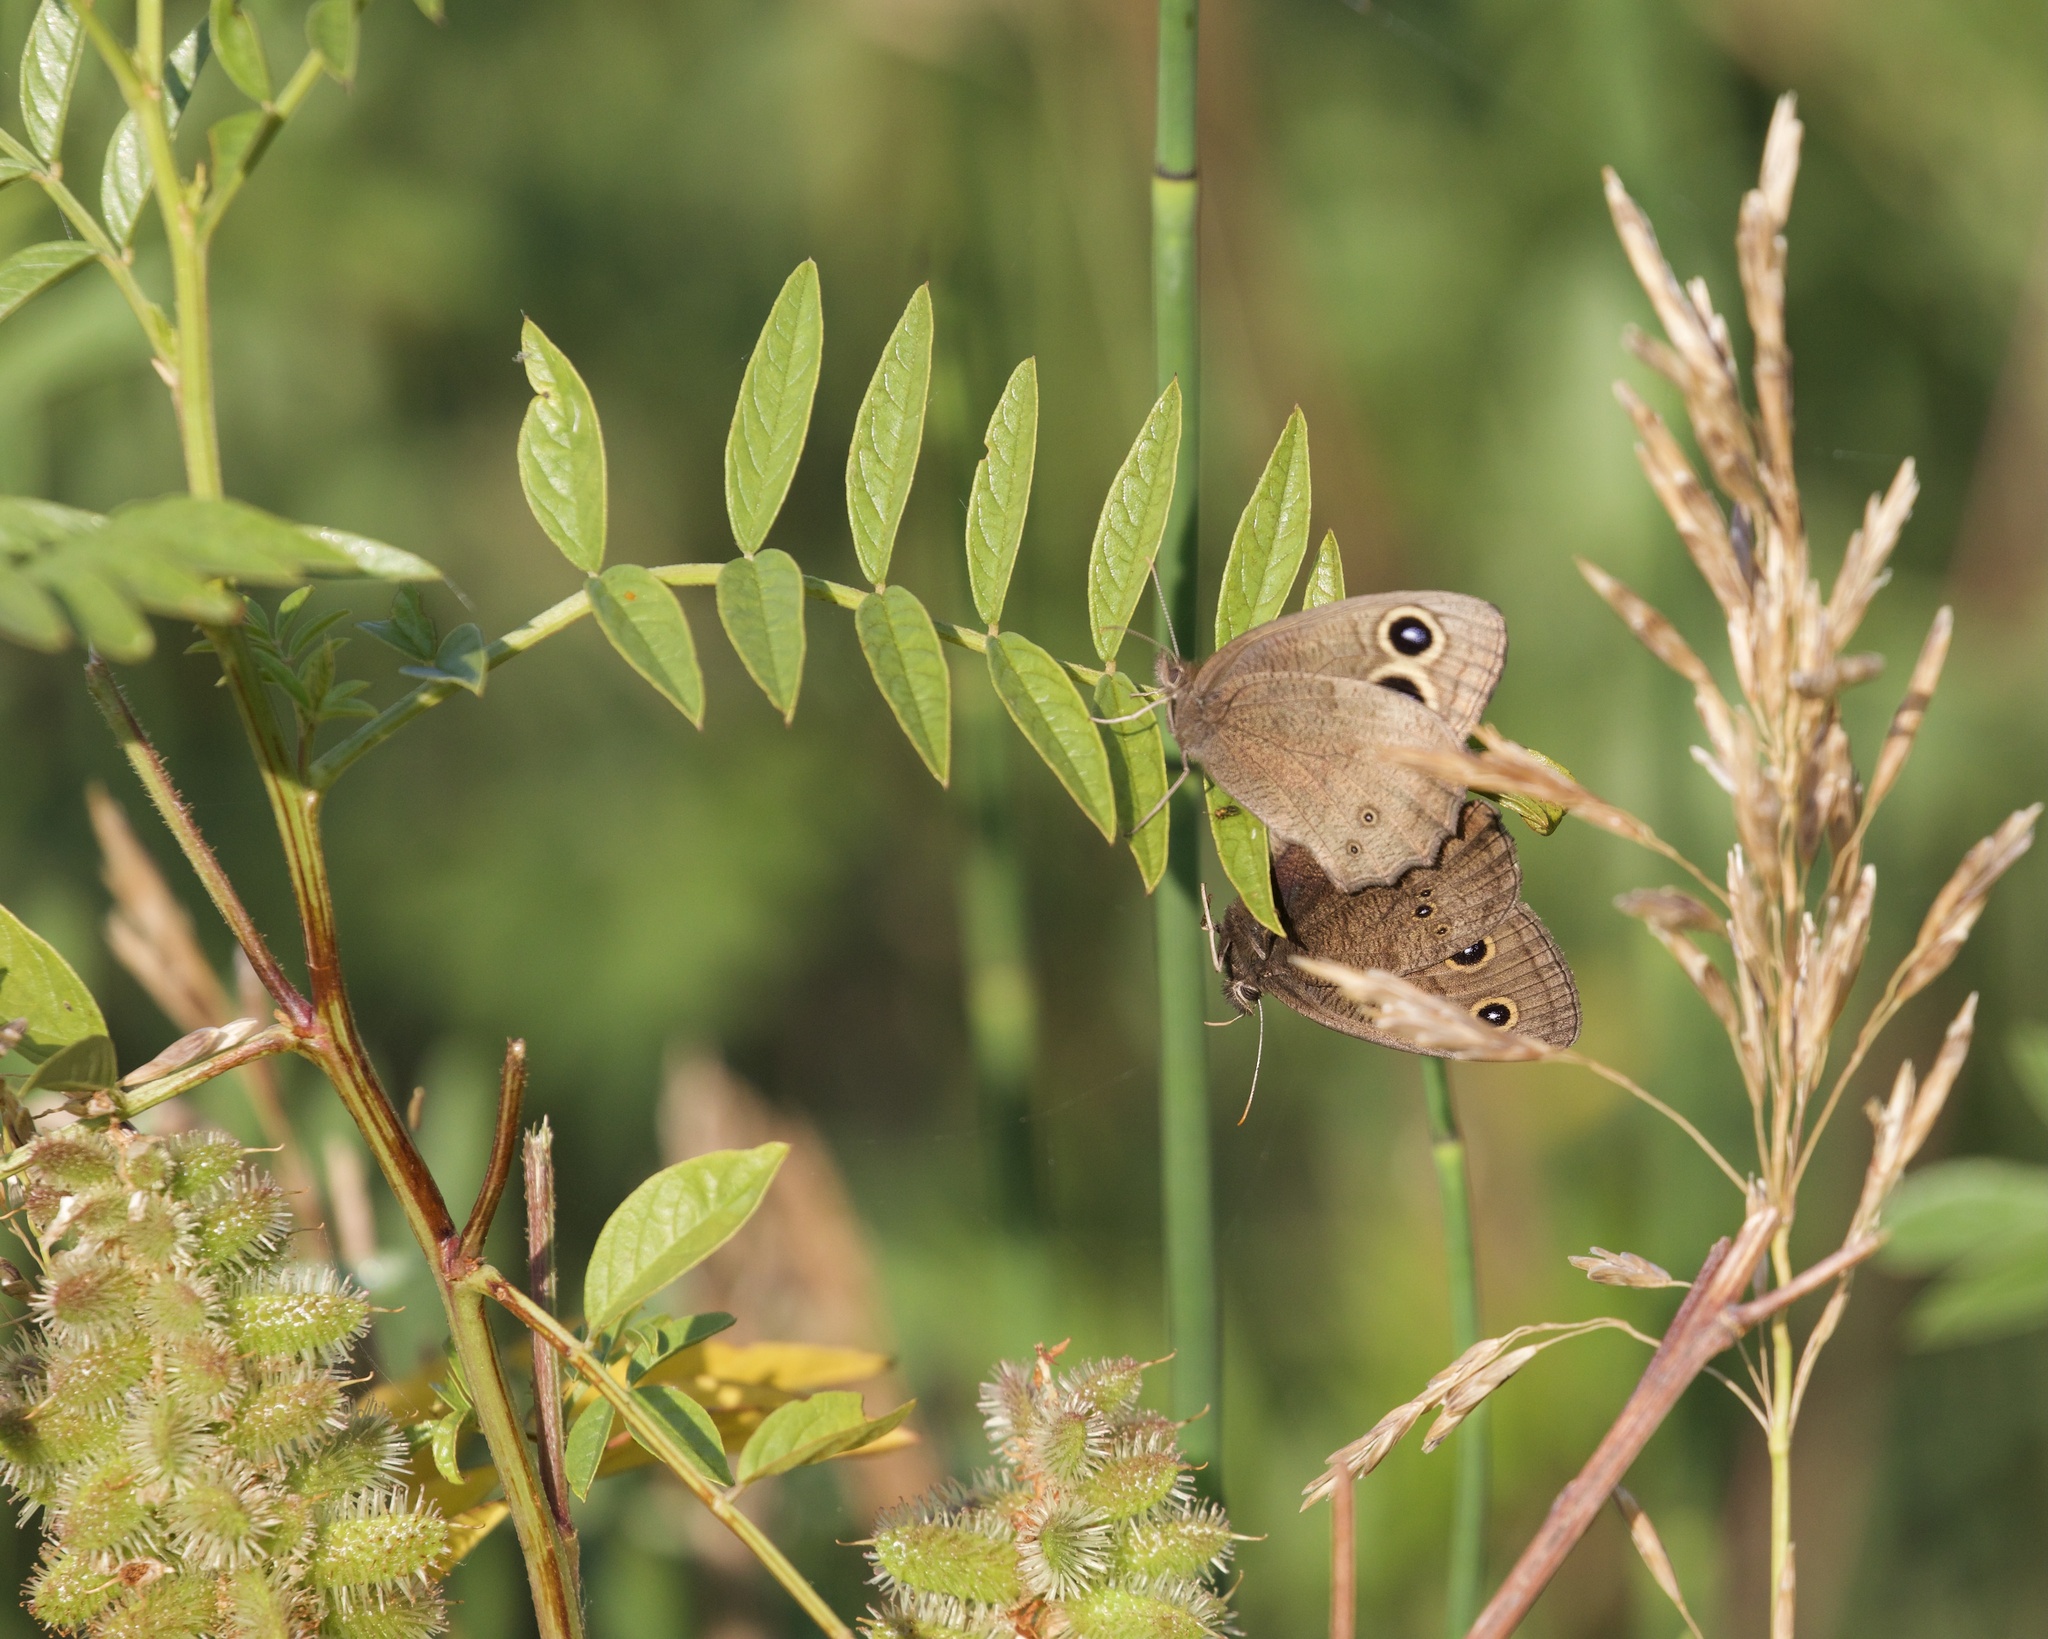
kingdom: Animalia
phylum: Arthropoda
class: Insecta
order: Lepidoptera
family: Nymphalidae
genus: Cercyonis
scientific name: Cercyonis pegala
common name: Common wood-nymph
